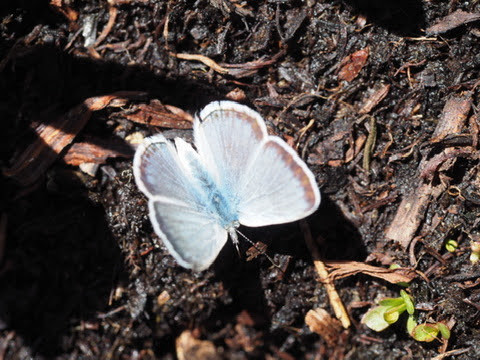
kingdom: Animalia
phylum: Arthropoda
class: Insecta
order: Lepidoptera
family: Lycaenidae
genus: Icaricia
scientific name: Icaricia saepiolus
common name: Greenish blue
